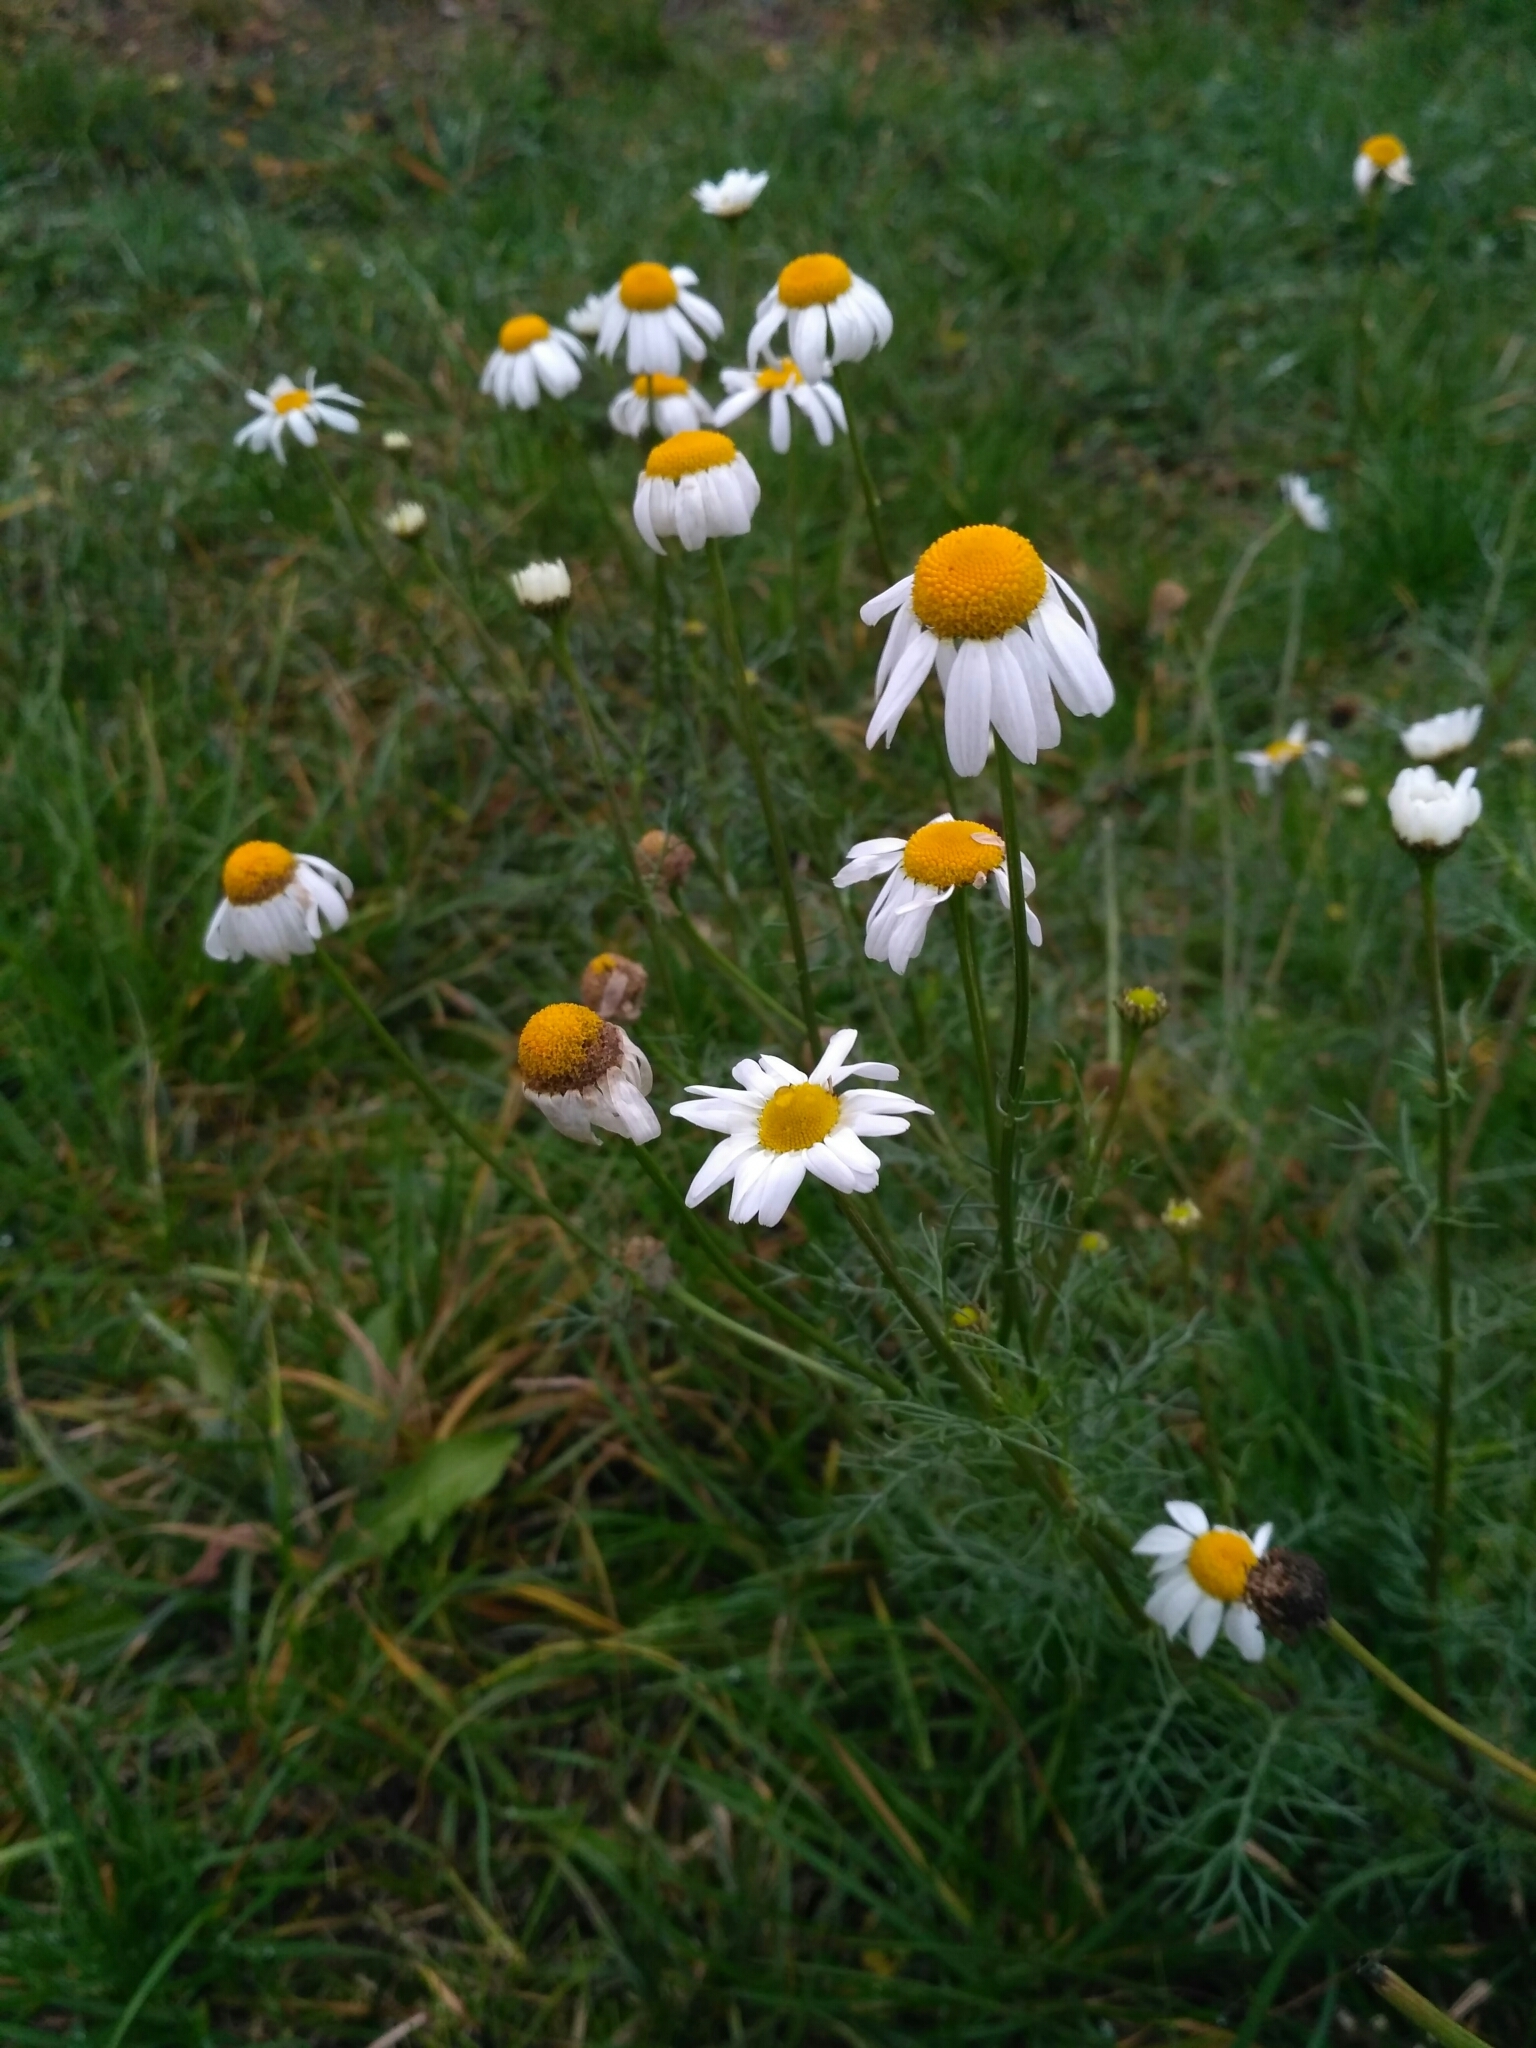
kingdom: Plantae
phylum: Tracheophyta
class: Magnoliopsida
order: Asterales
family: Asteraceae
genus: Tripleurospermum
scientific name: Tripleurospermum inodorum
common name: Scentless mayweed
